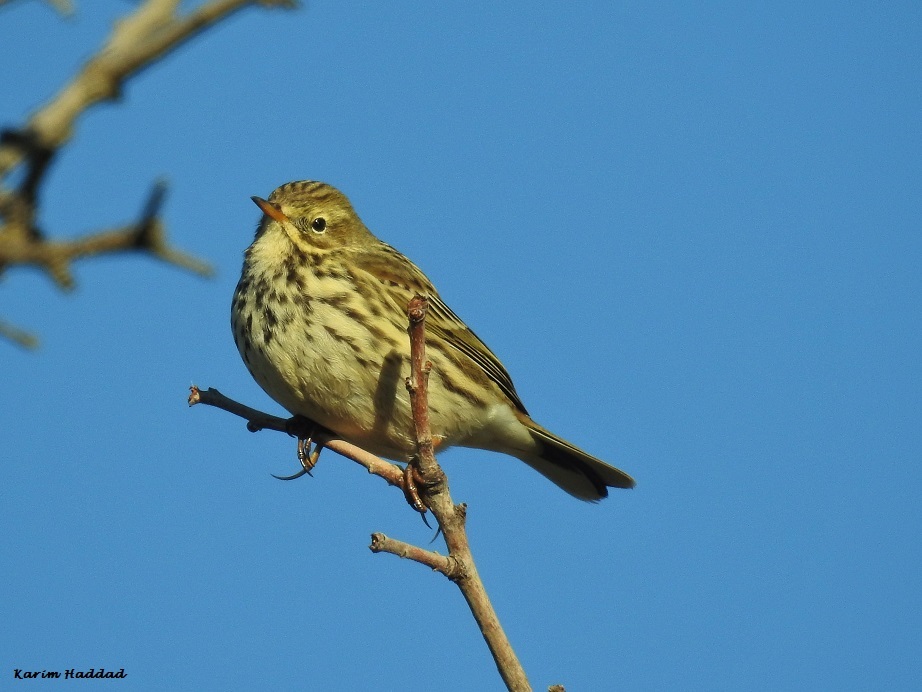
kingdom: Animalia
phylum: Chordata
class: Aves
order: Passeriformes
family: Motacillidae
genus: Anthus
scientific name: Anthus pratensis
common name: Meadow pipit
